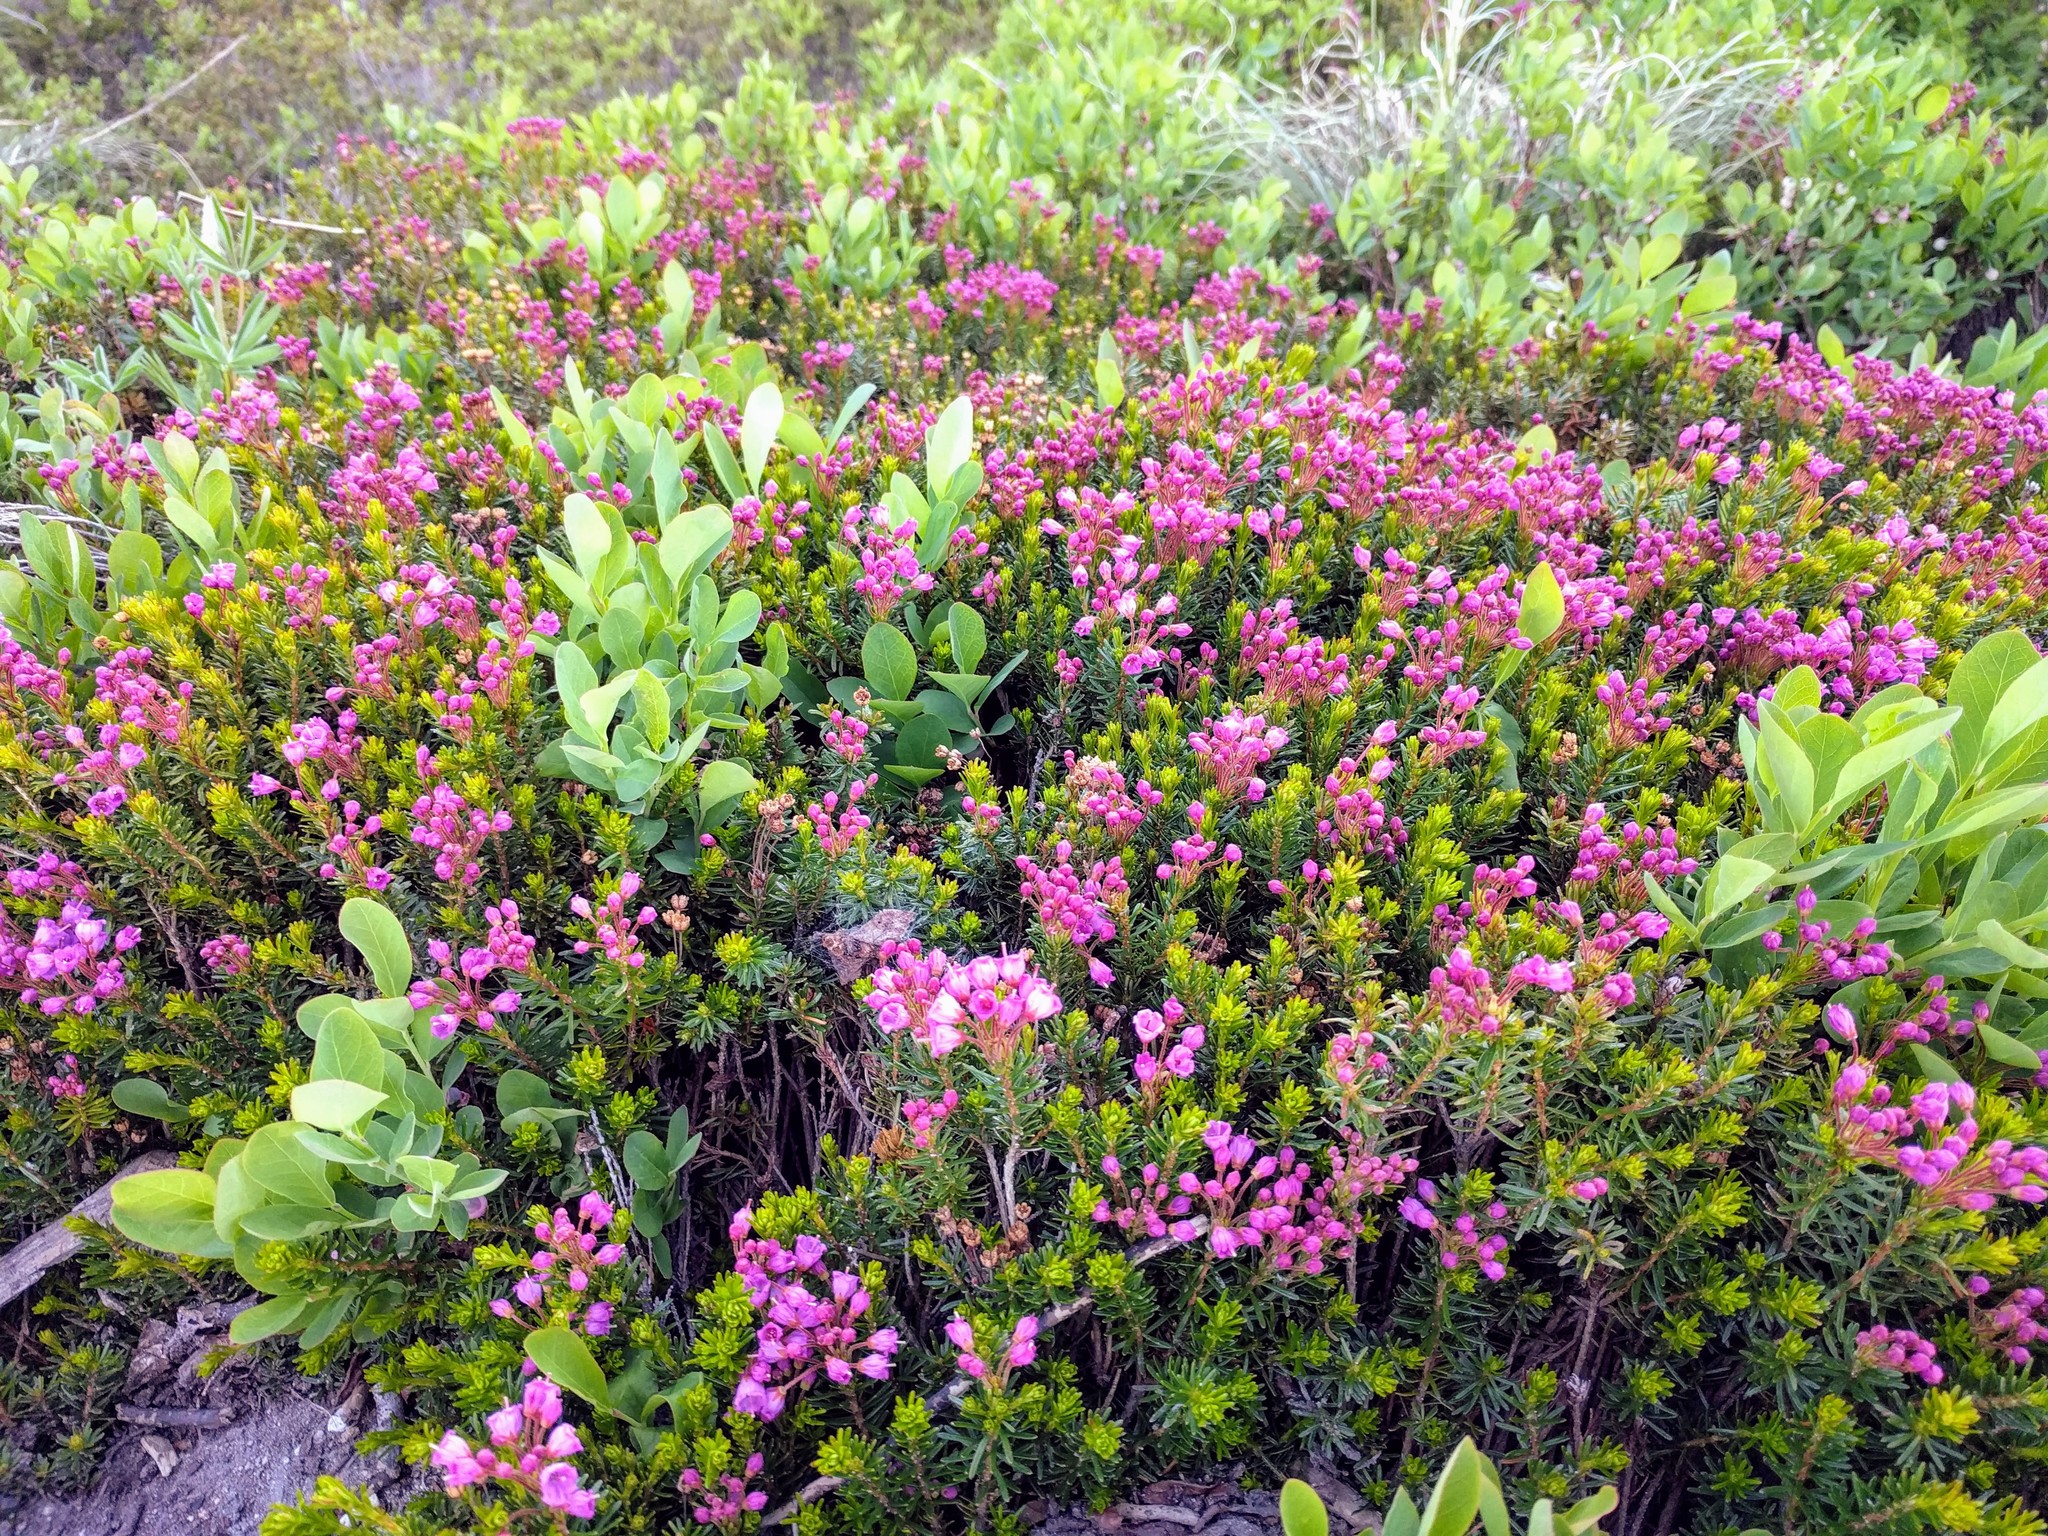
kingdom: Plantae
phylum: Tracheophyta
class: Magnoliopsida
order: Ericales
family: Ericaceae
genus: Phyllodoce
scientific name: Phyllodoce empetriformis
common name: Pink mountain heather
